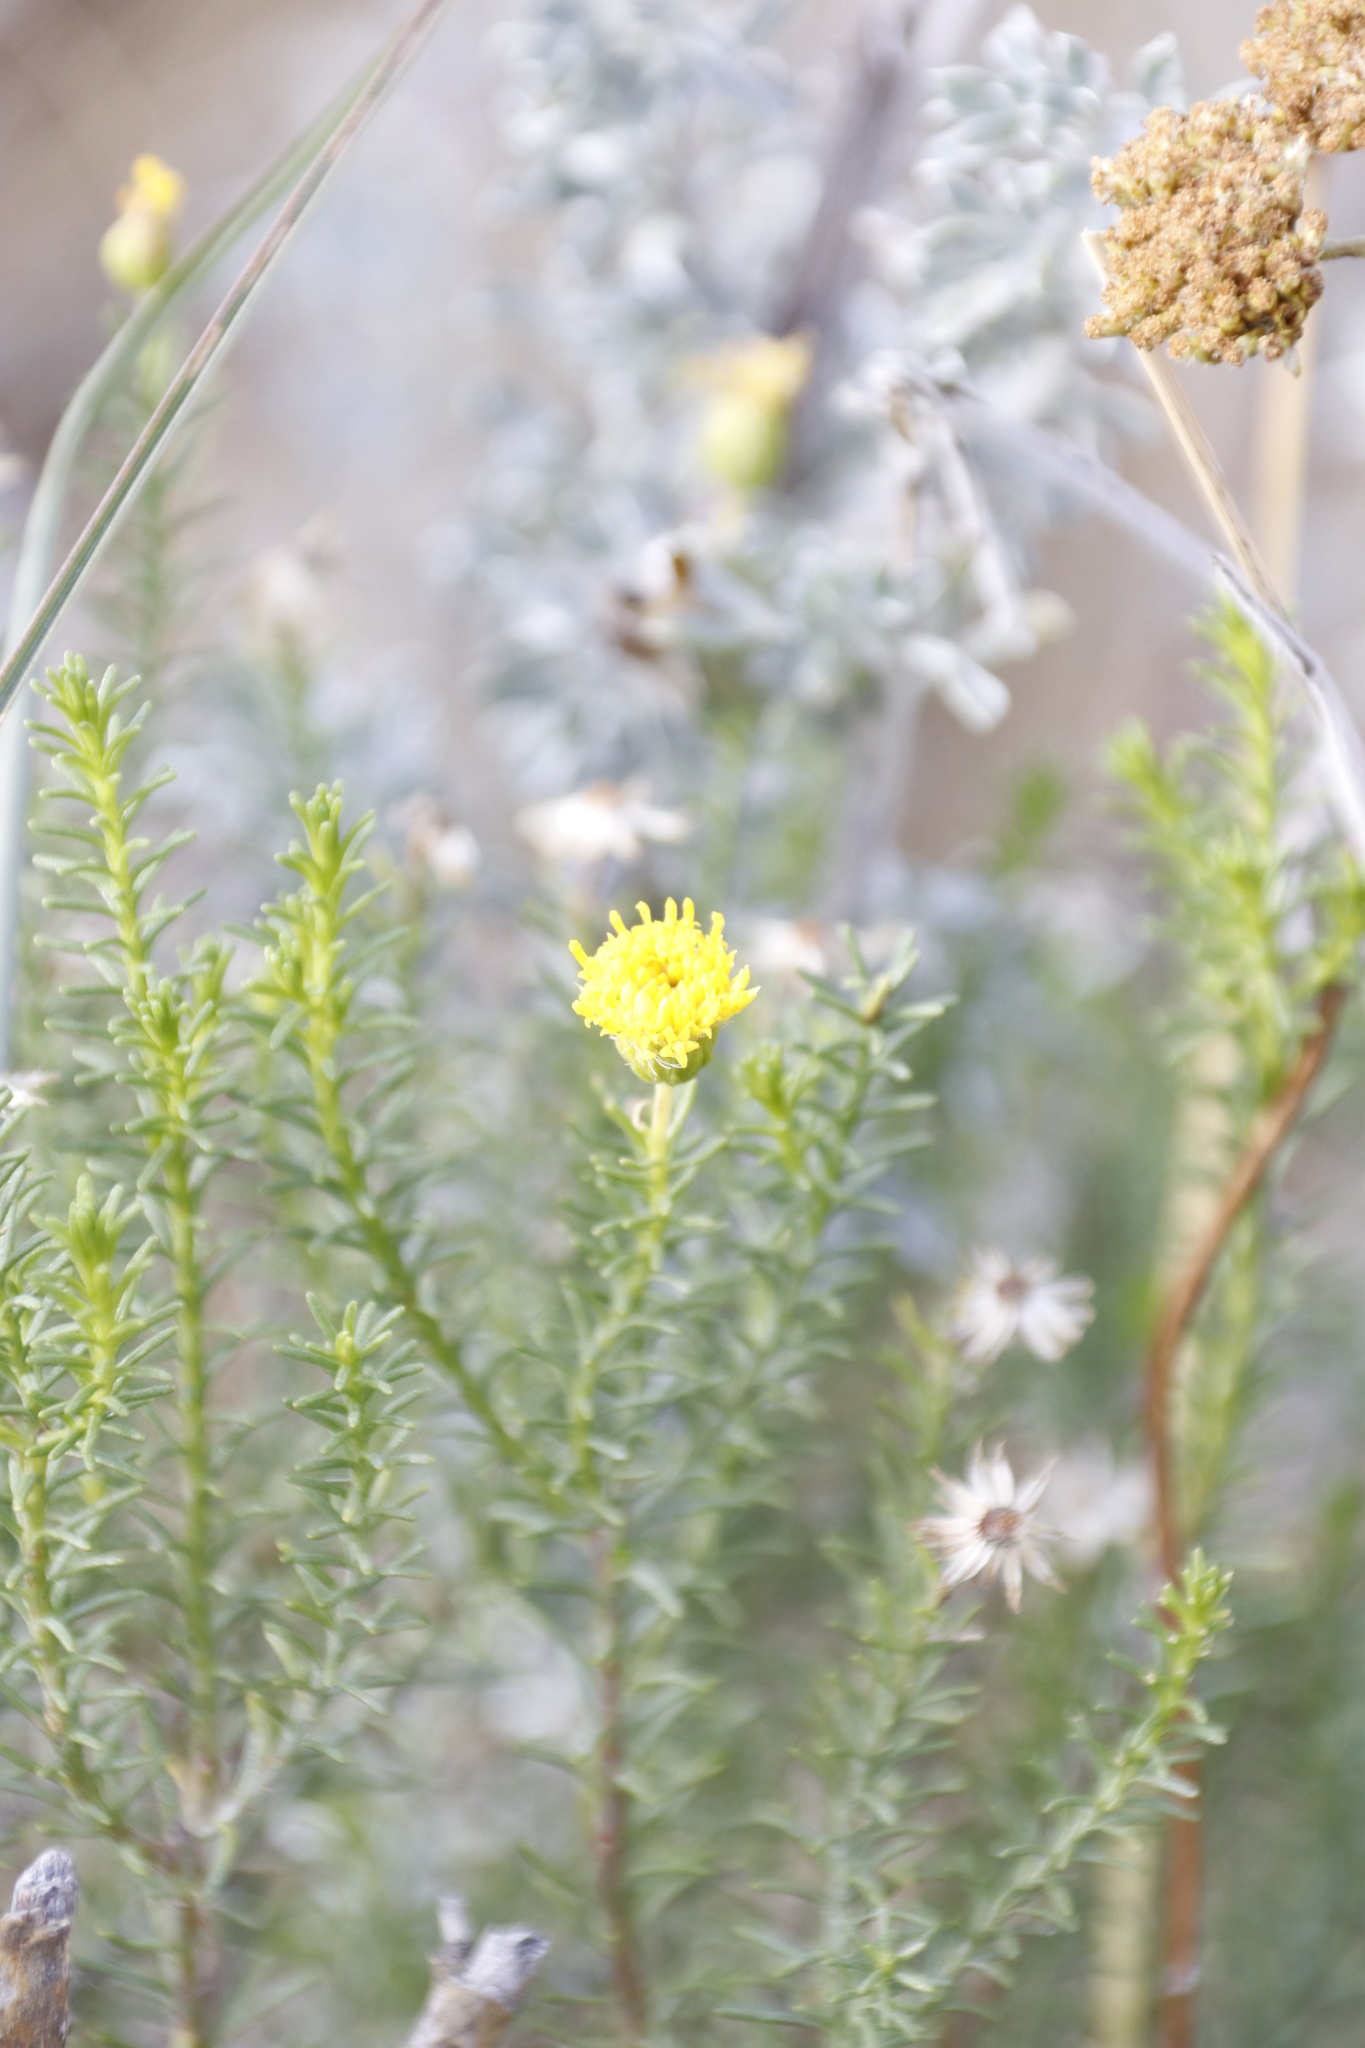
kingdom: Plantae
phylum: Tracheophyta
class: Magnoliopsida
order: Asterales
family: Asteraceae
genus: Chrysocoma
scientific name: Chrysocoma ciliata
